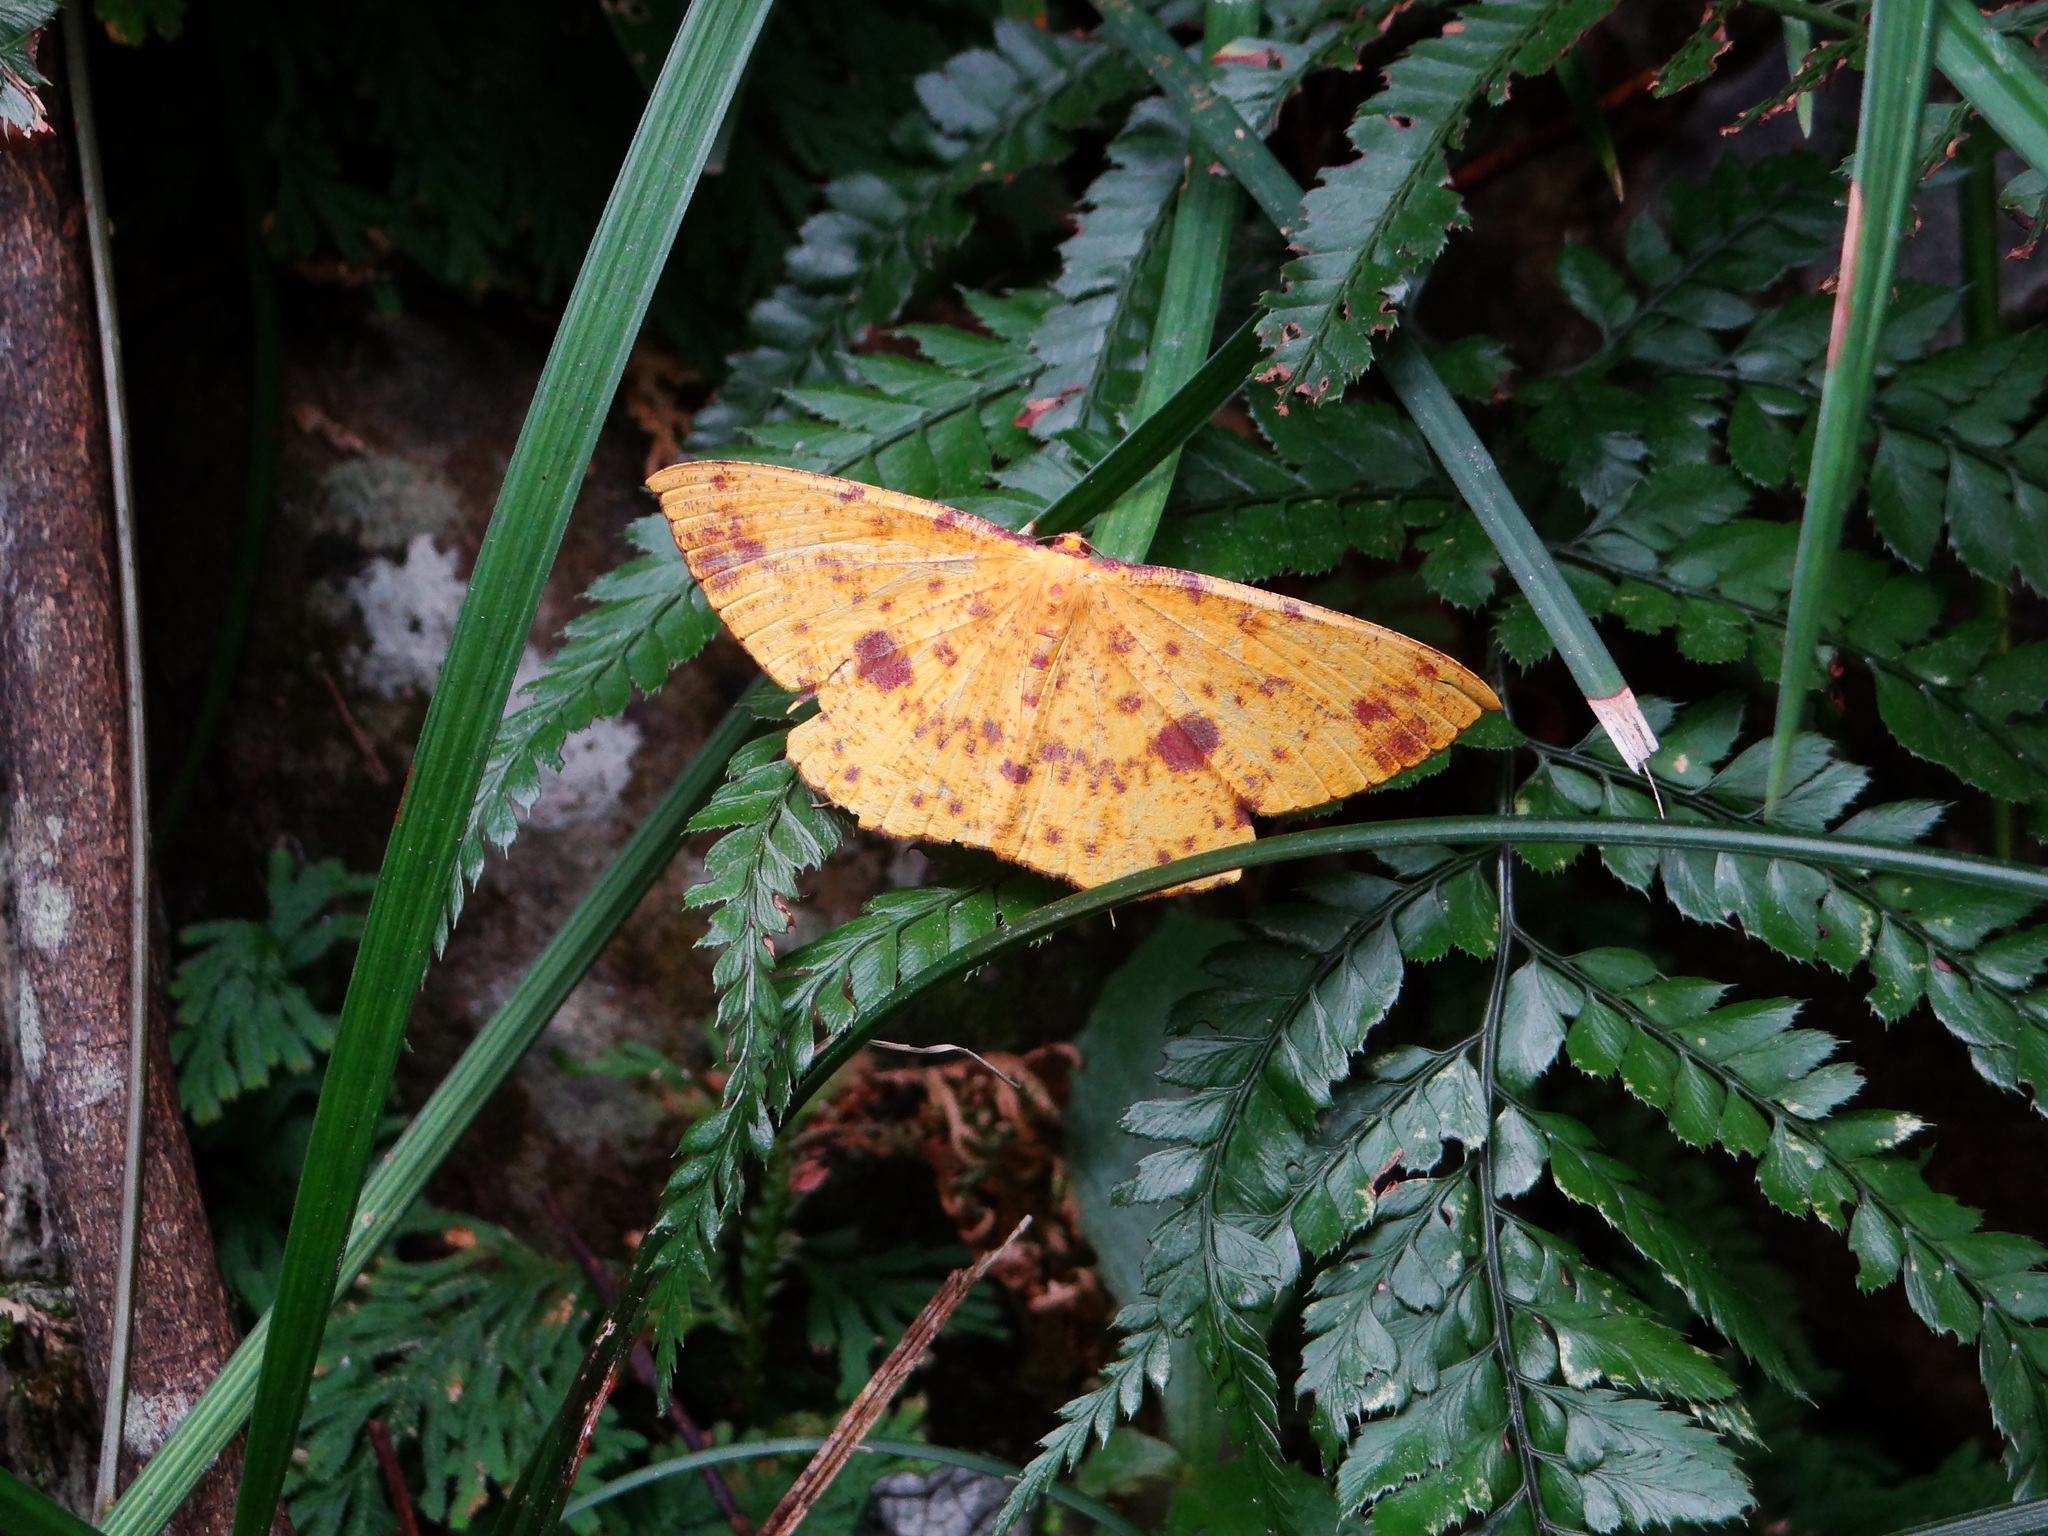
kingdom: Animalia
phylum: Arthropoda
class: Insecta
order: Lepidoptera
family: Geometridae
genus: Eumelea
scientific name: Eumelea ludovicata
